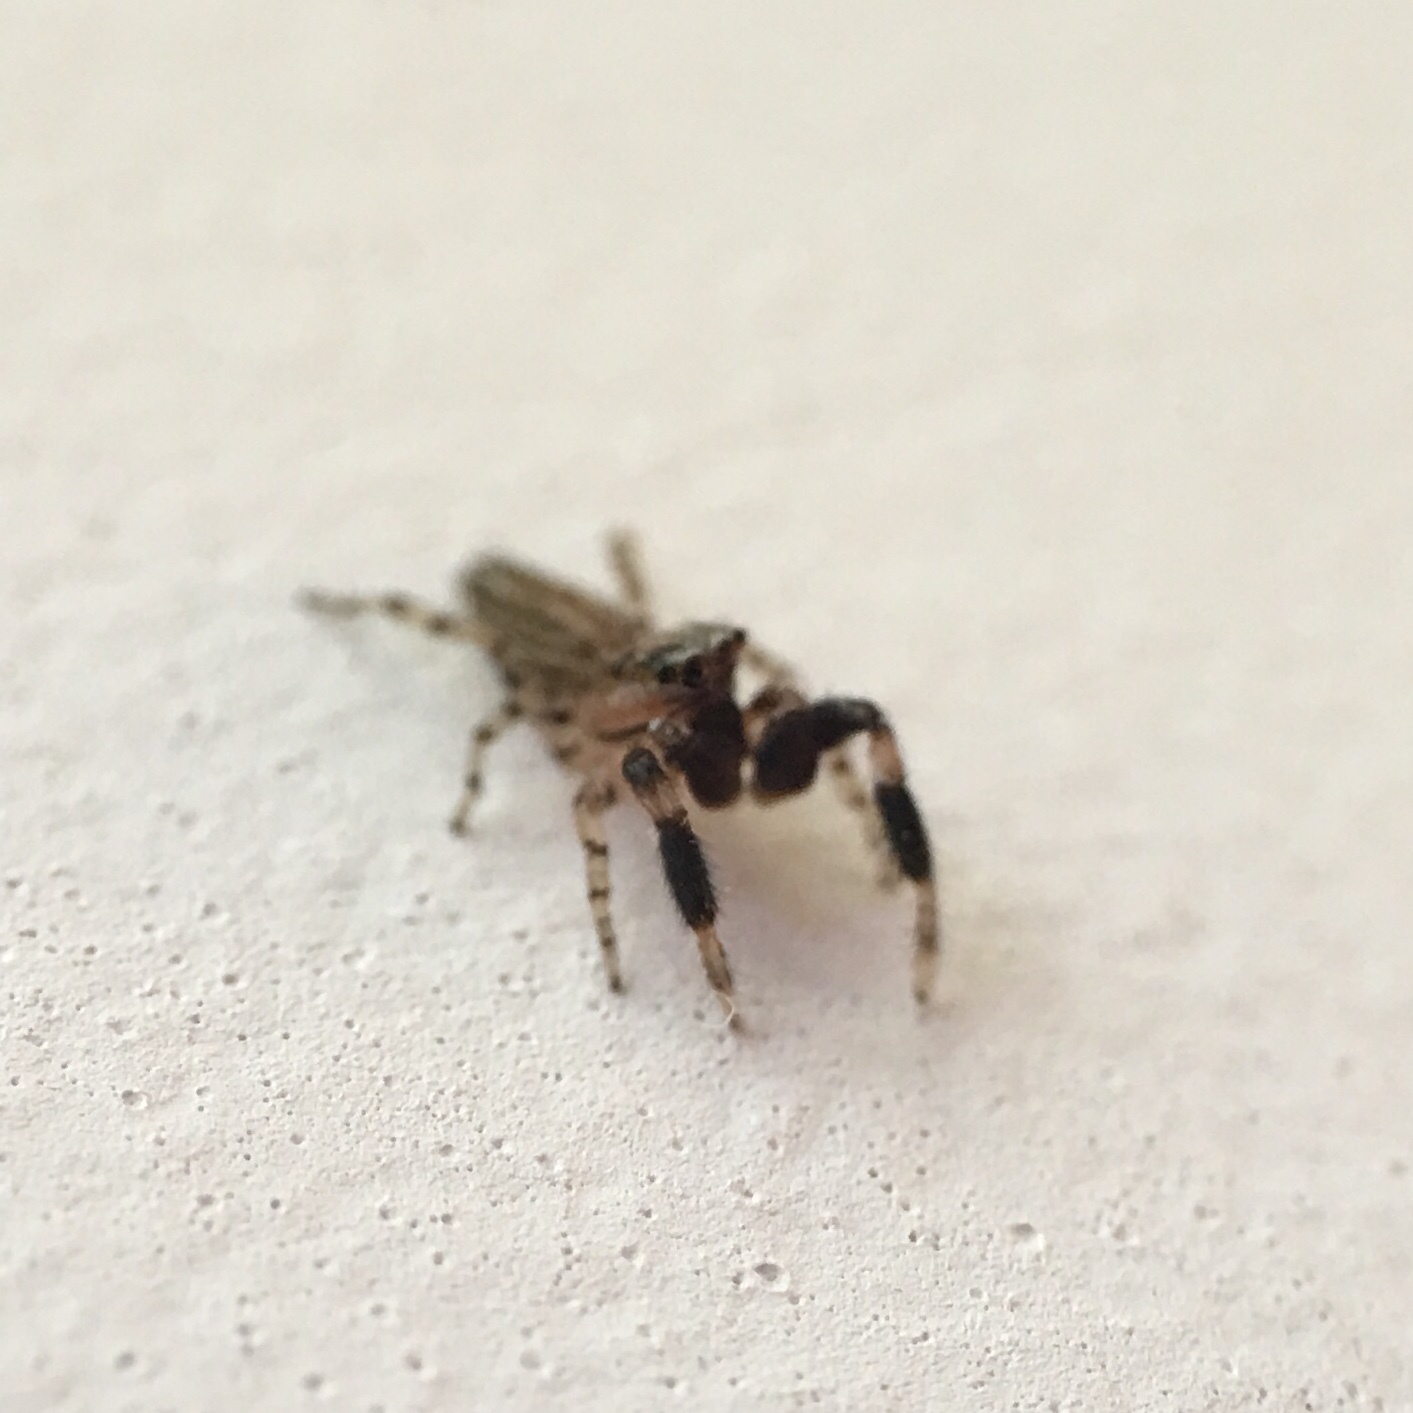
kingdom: Animalia
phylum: Arthropoda
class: Arachnida
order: Araneae
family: Salticidae
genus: Marpissa
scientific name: Marpissa lineata
